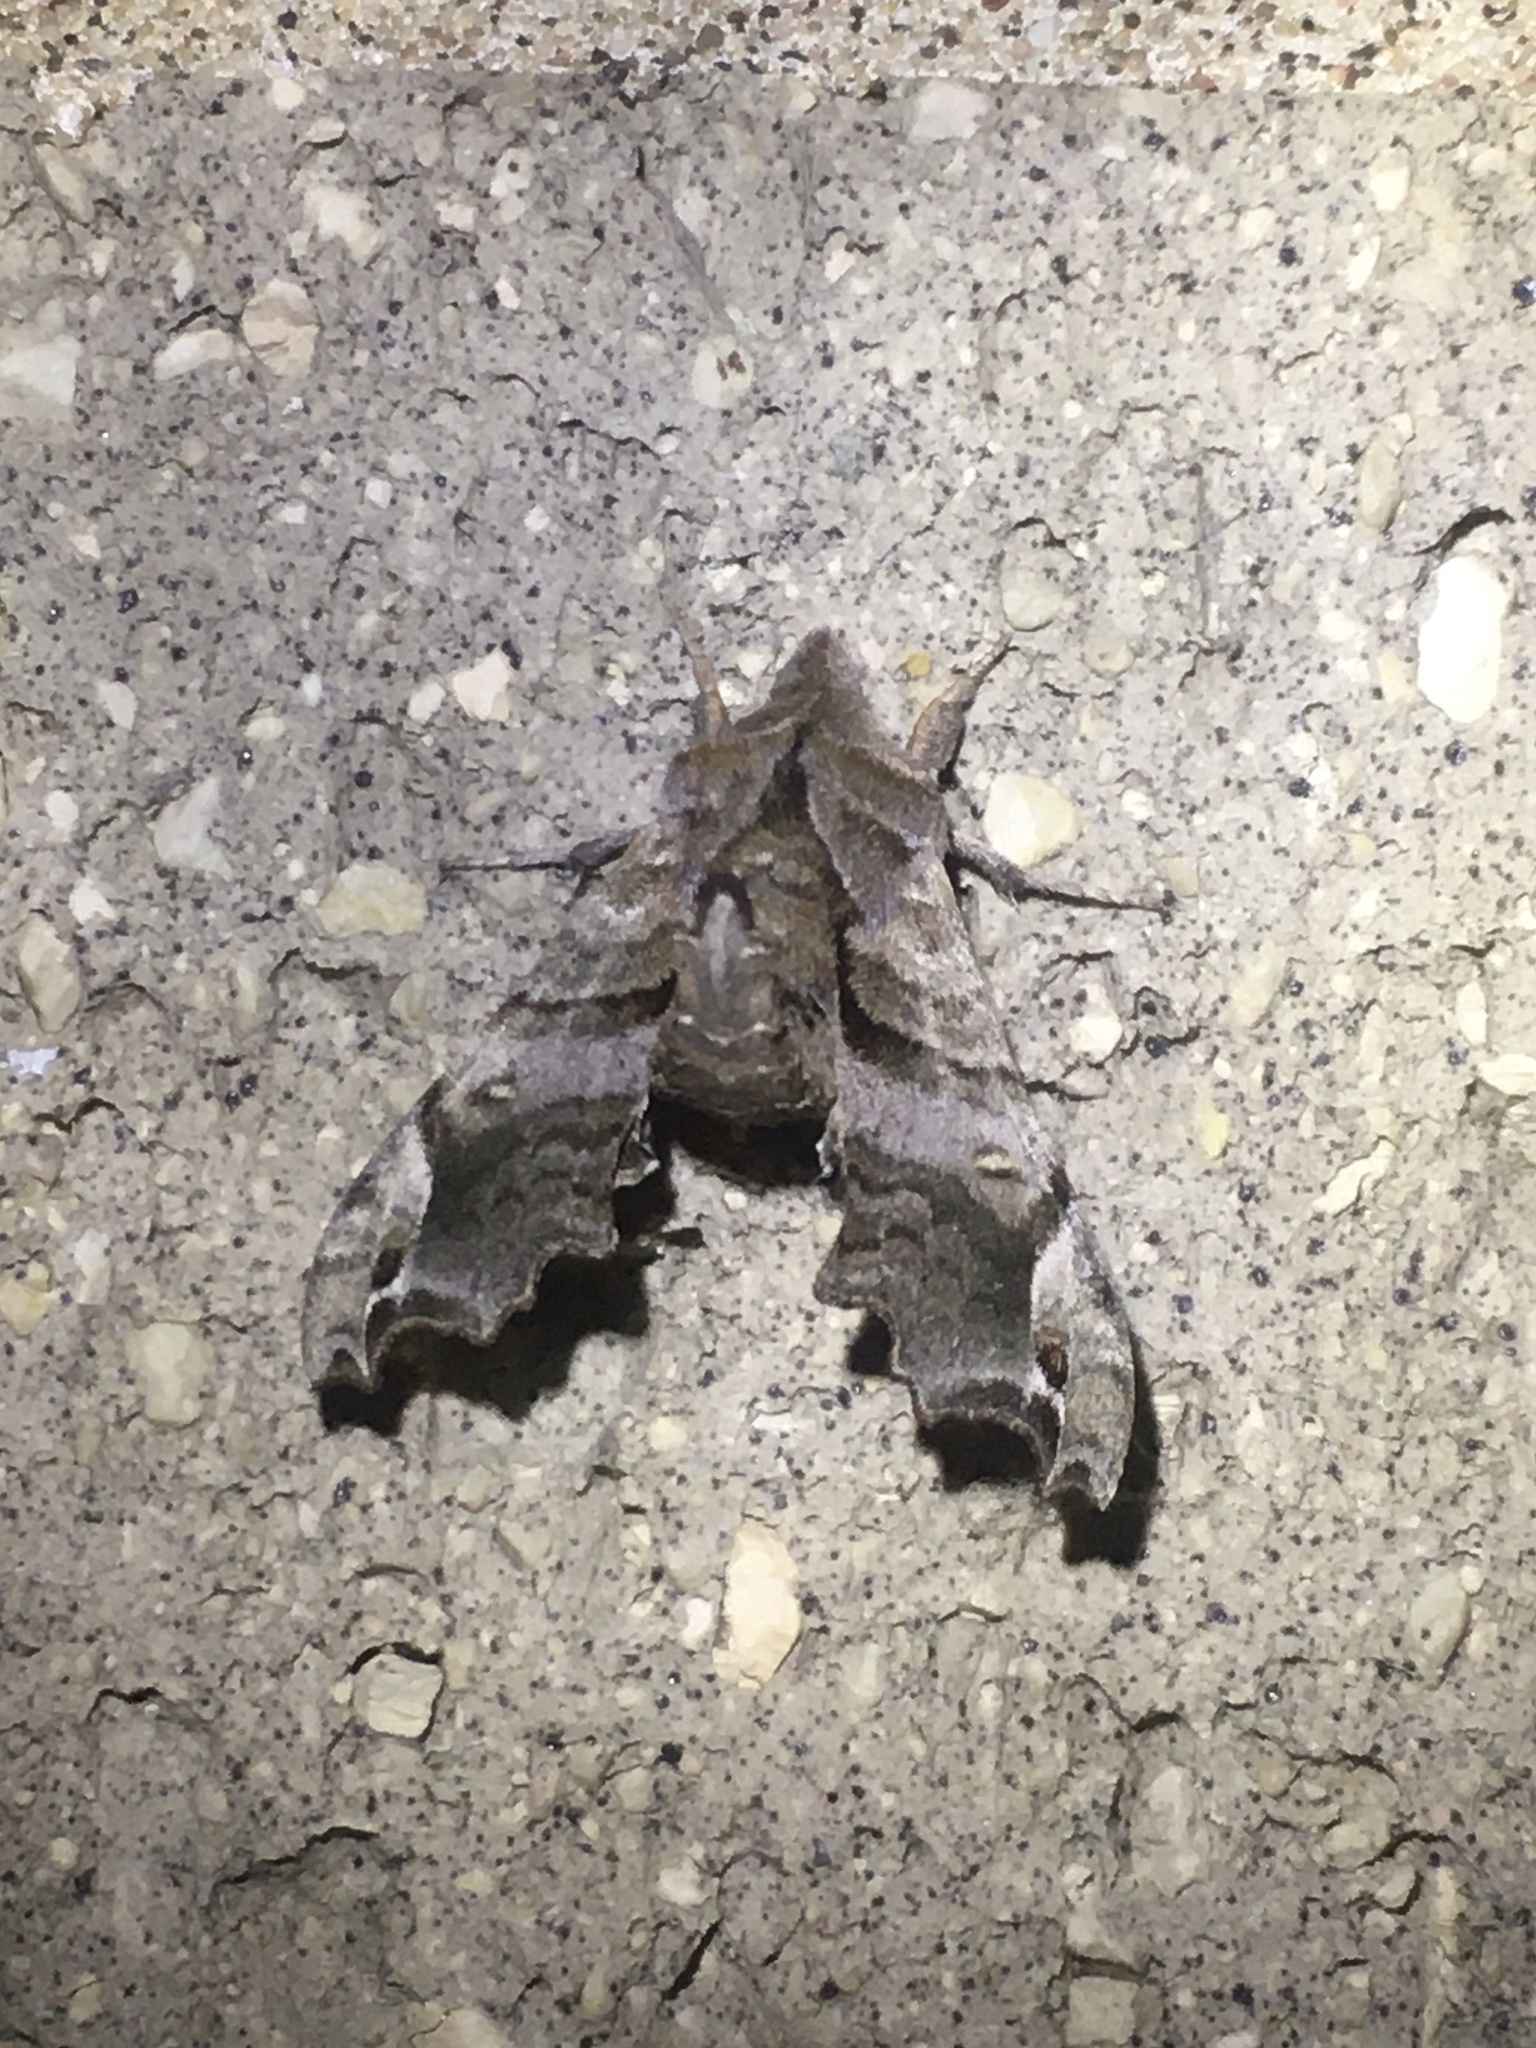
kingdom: Animalia
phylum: Arthropoda
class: Insecta
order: Lepidoptera
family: Sphingidae
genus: Deidamia
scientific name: Deidamia inscriptum
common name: Lettered sphinx
